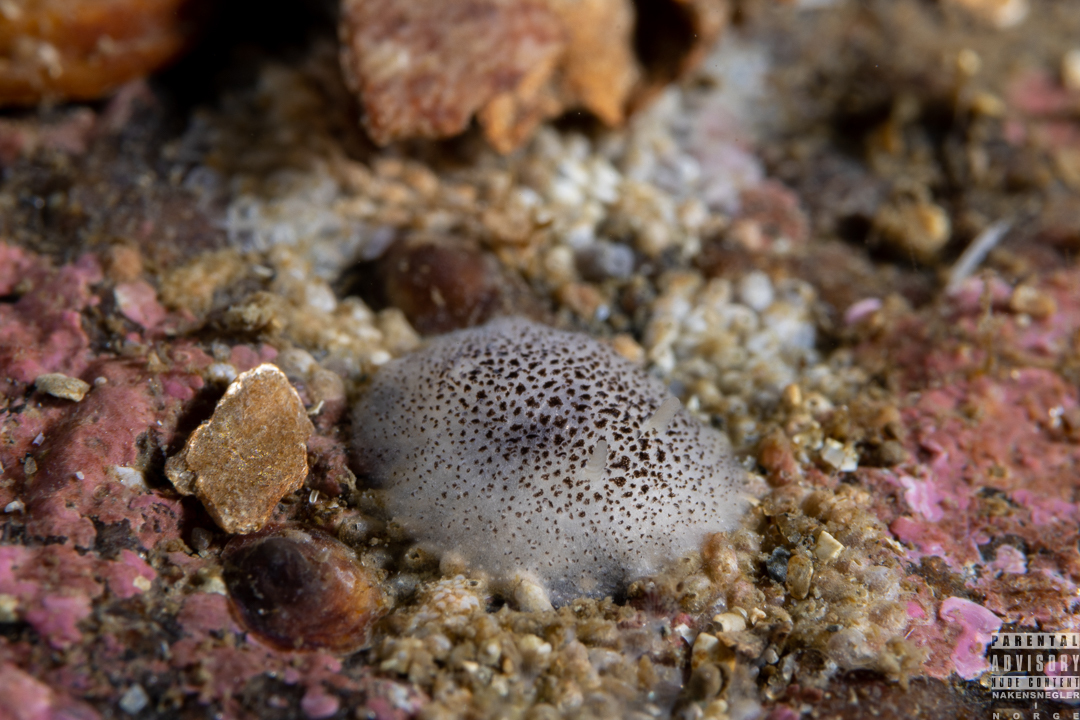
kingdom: Animalia
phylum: Mollusca
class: Gastropoda
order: Nudibranchia
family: Onchidorididae
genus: Atalodoris
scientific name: Atalodoris pusilla
